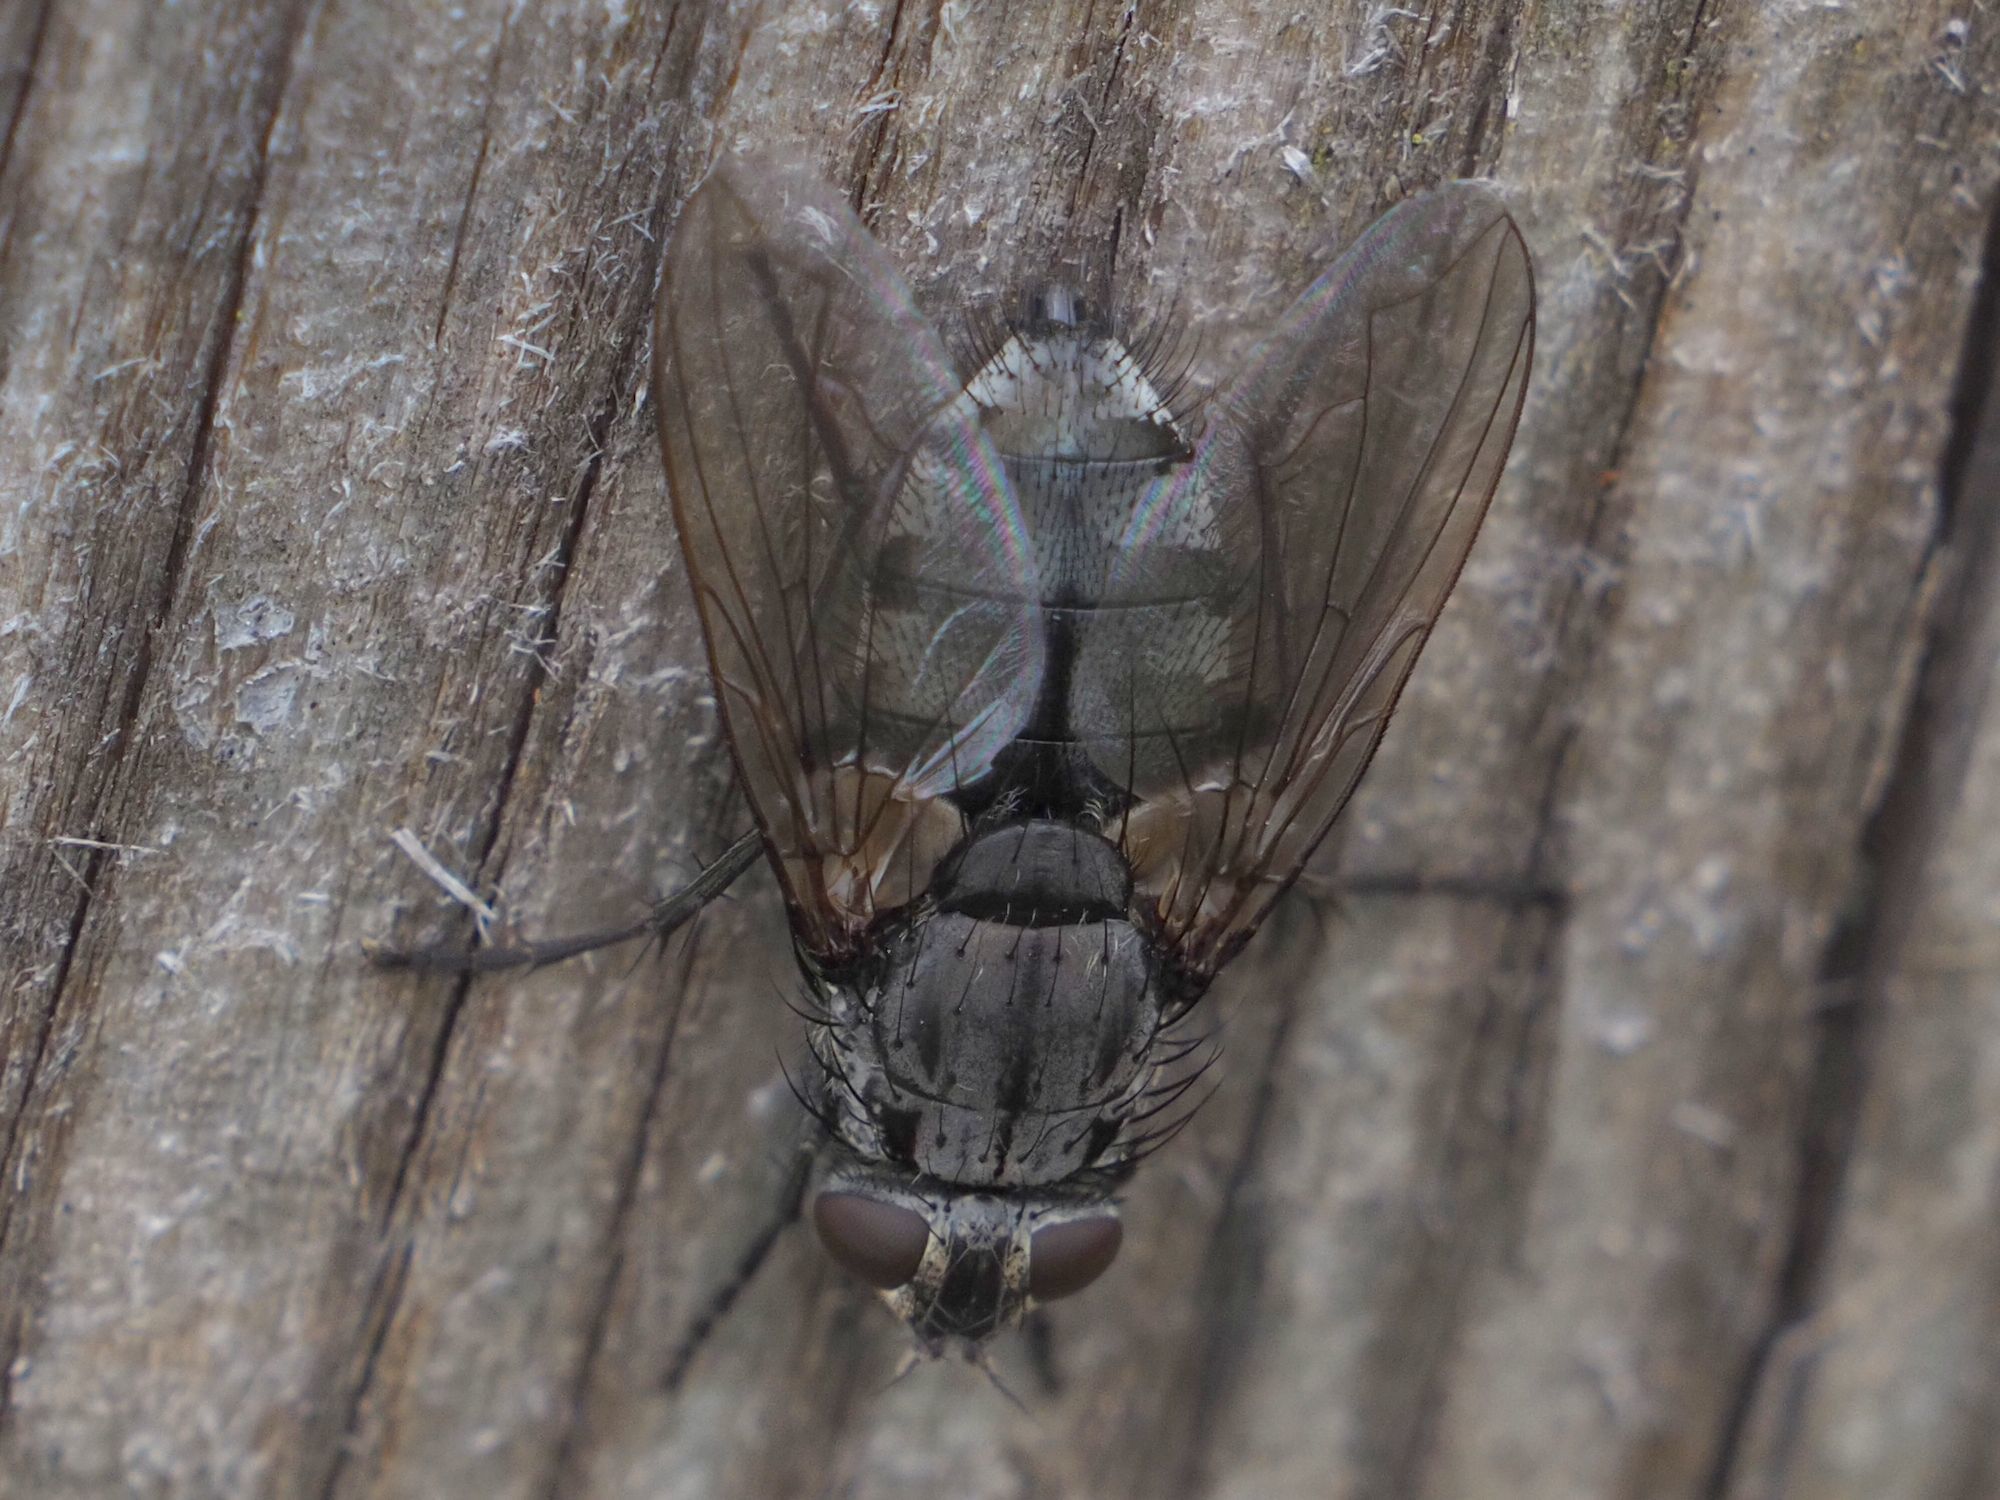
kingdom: Animalia
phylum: Arthropoda
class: Insecta
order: Diptera
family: Polleniidae
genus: Pollenia
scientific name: Pollenia vagabunda
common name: Vagabund cluster fly
